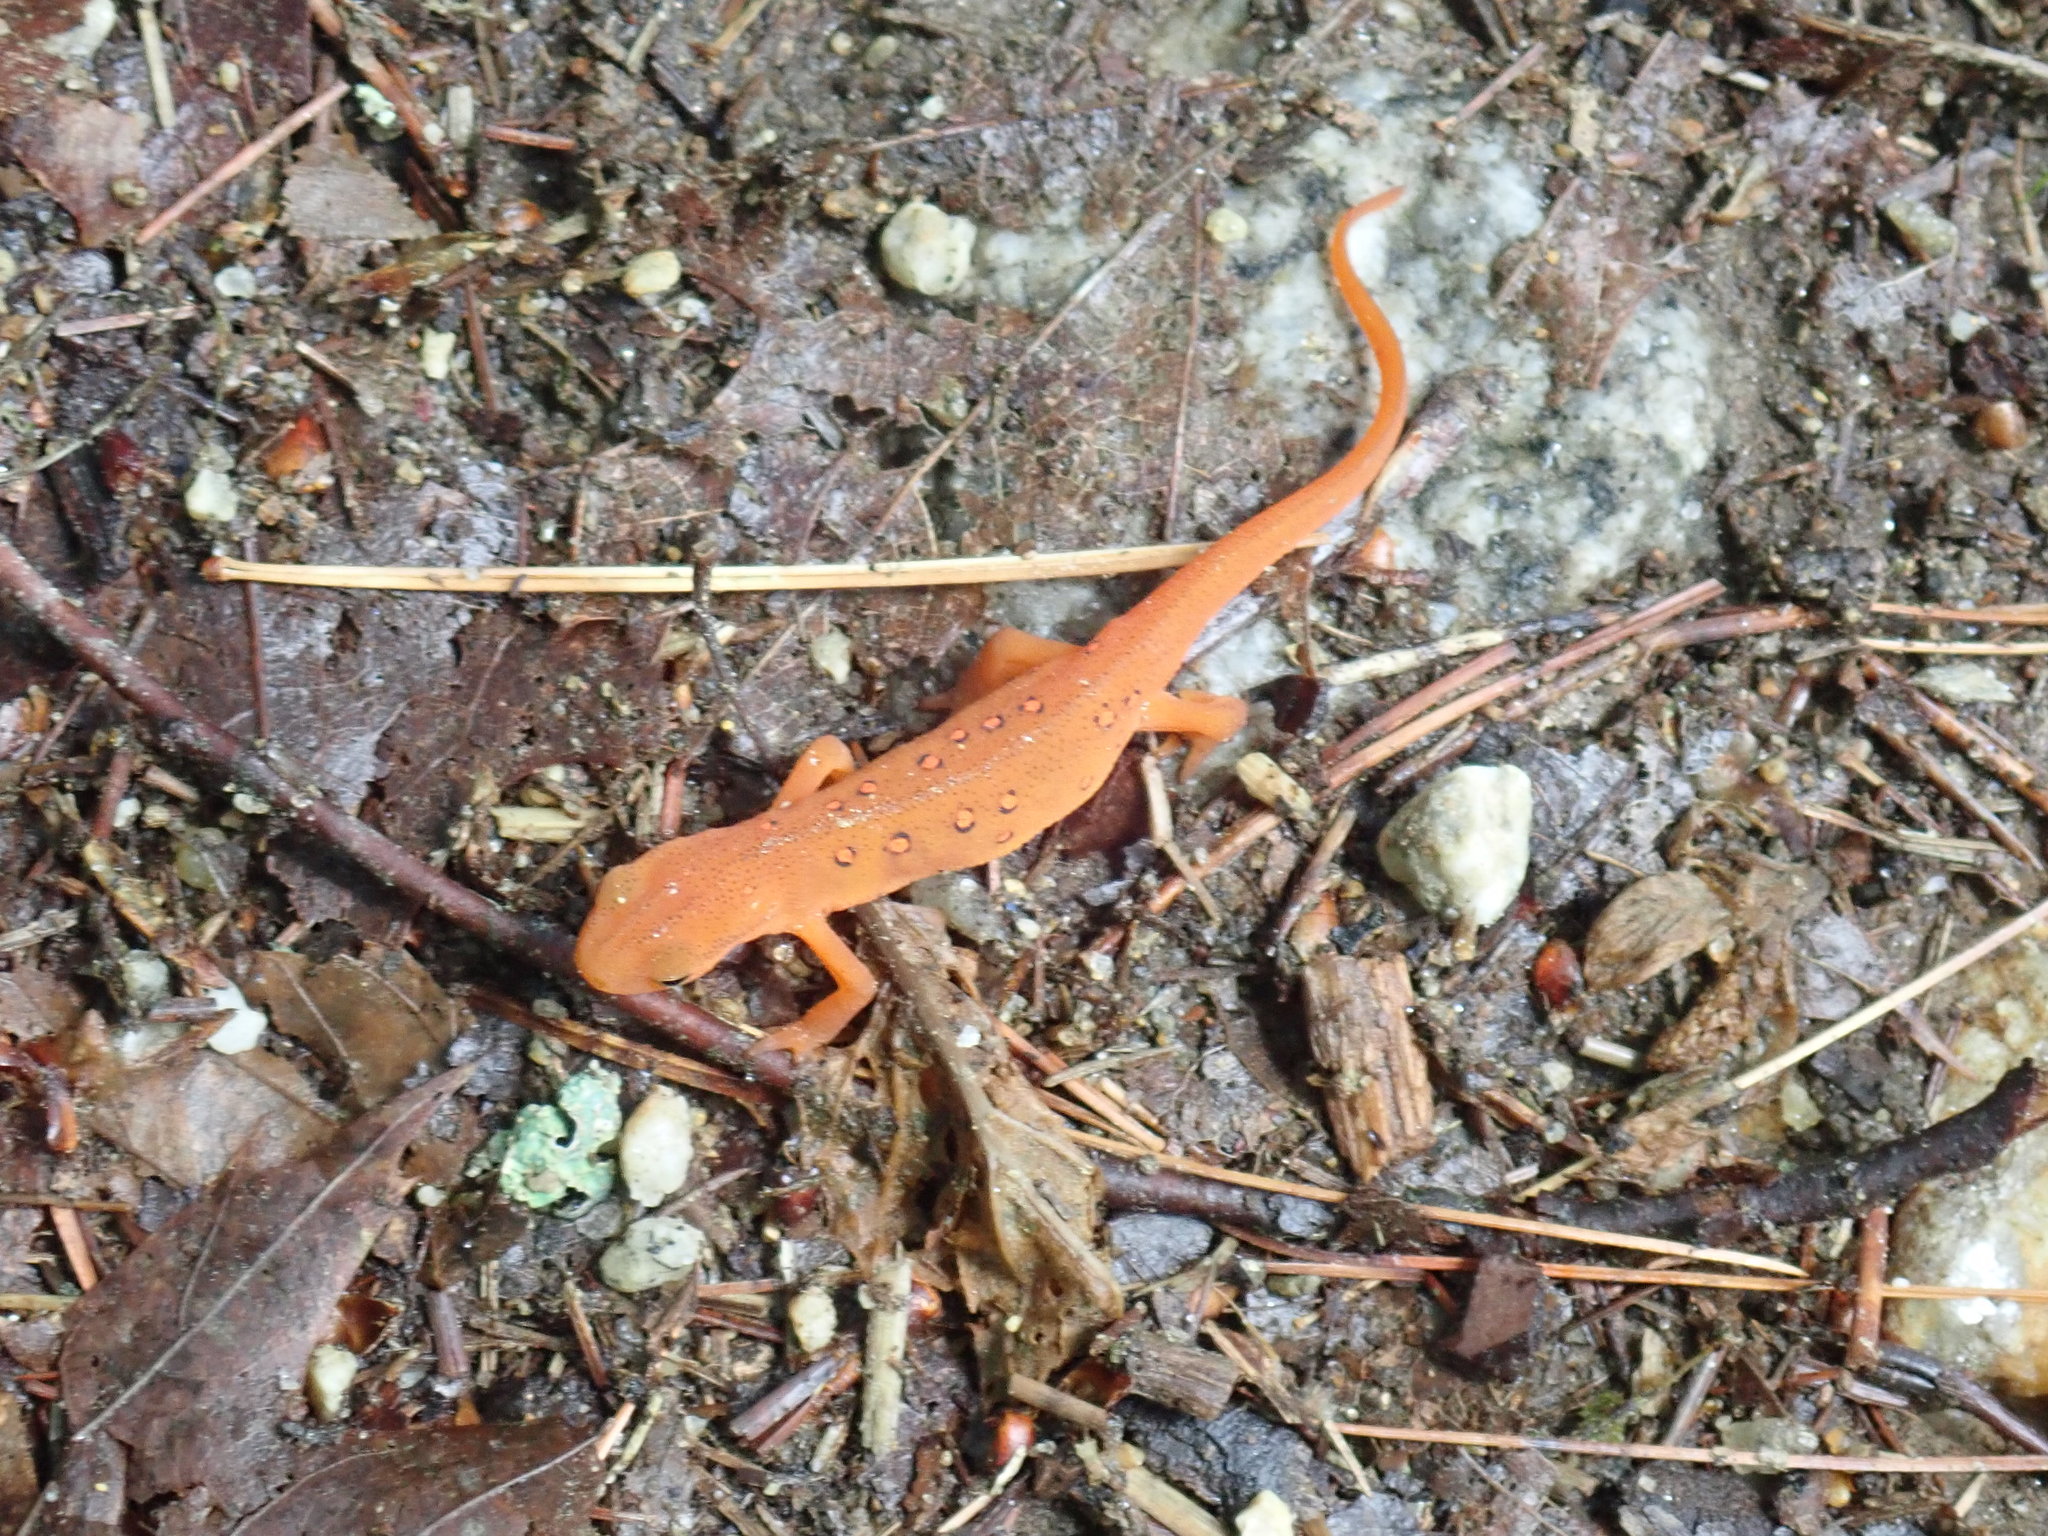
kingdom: Animalia
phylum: Chordata
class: Amphibia
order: Caudata
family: Salamandridae
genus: Notophthalmus
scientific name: Notophthalmus viridescens
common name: Eastern newt
